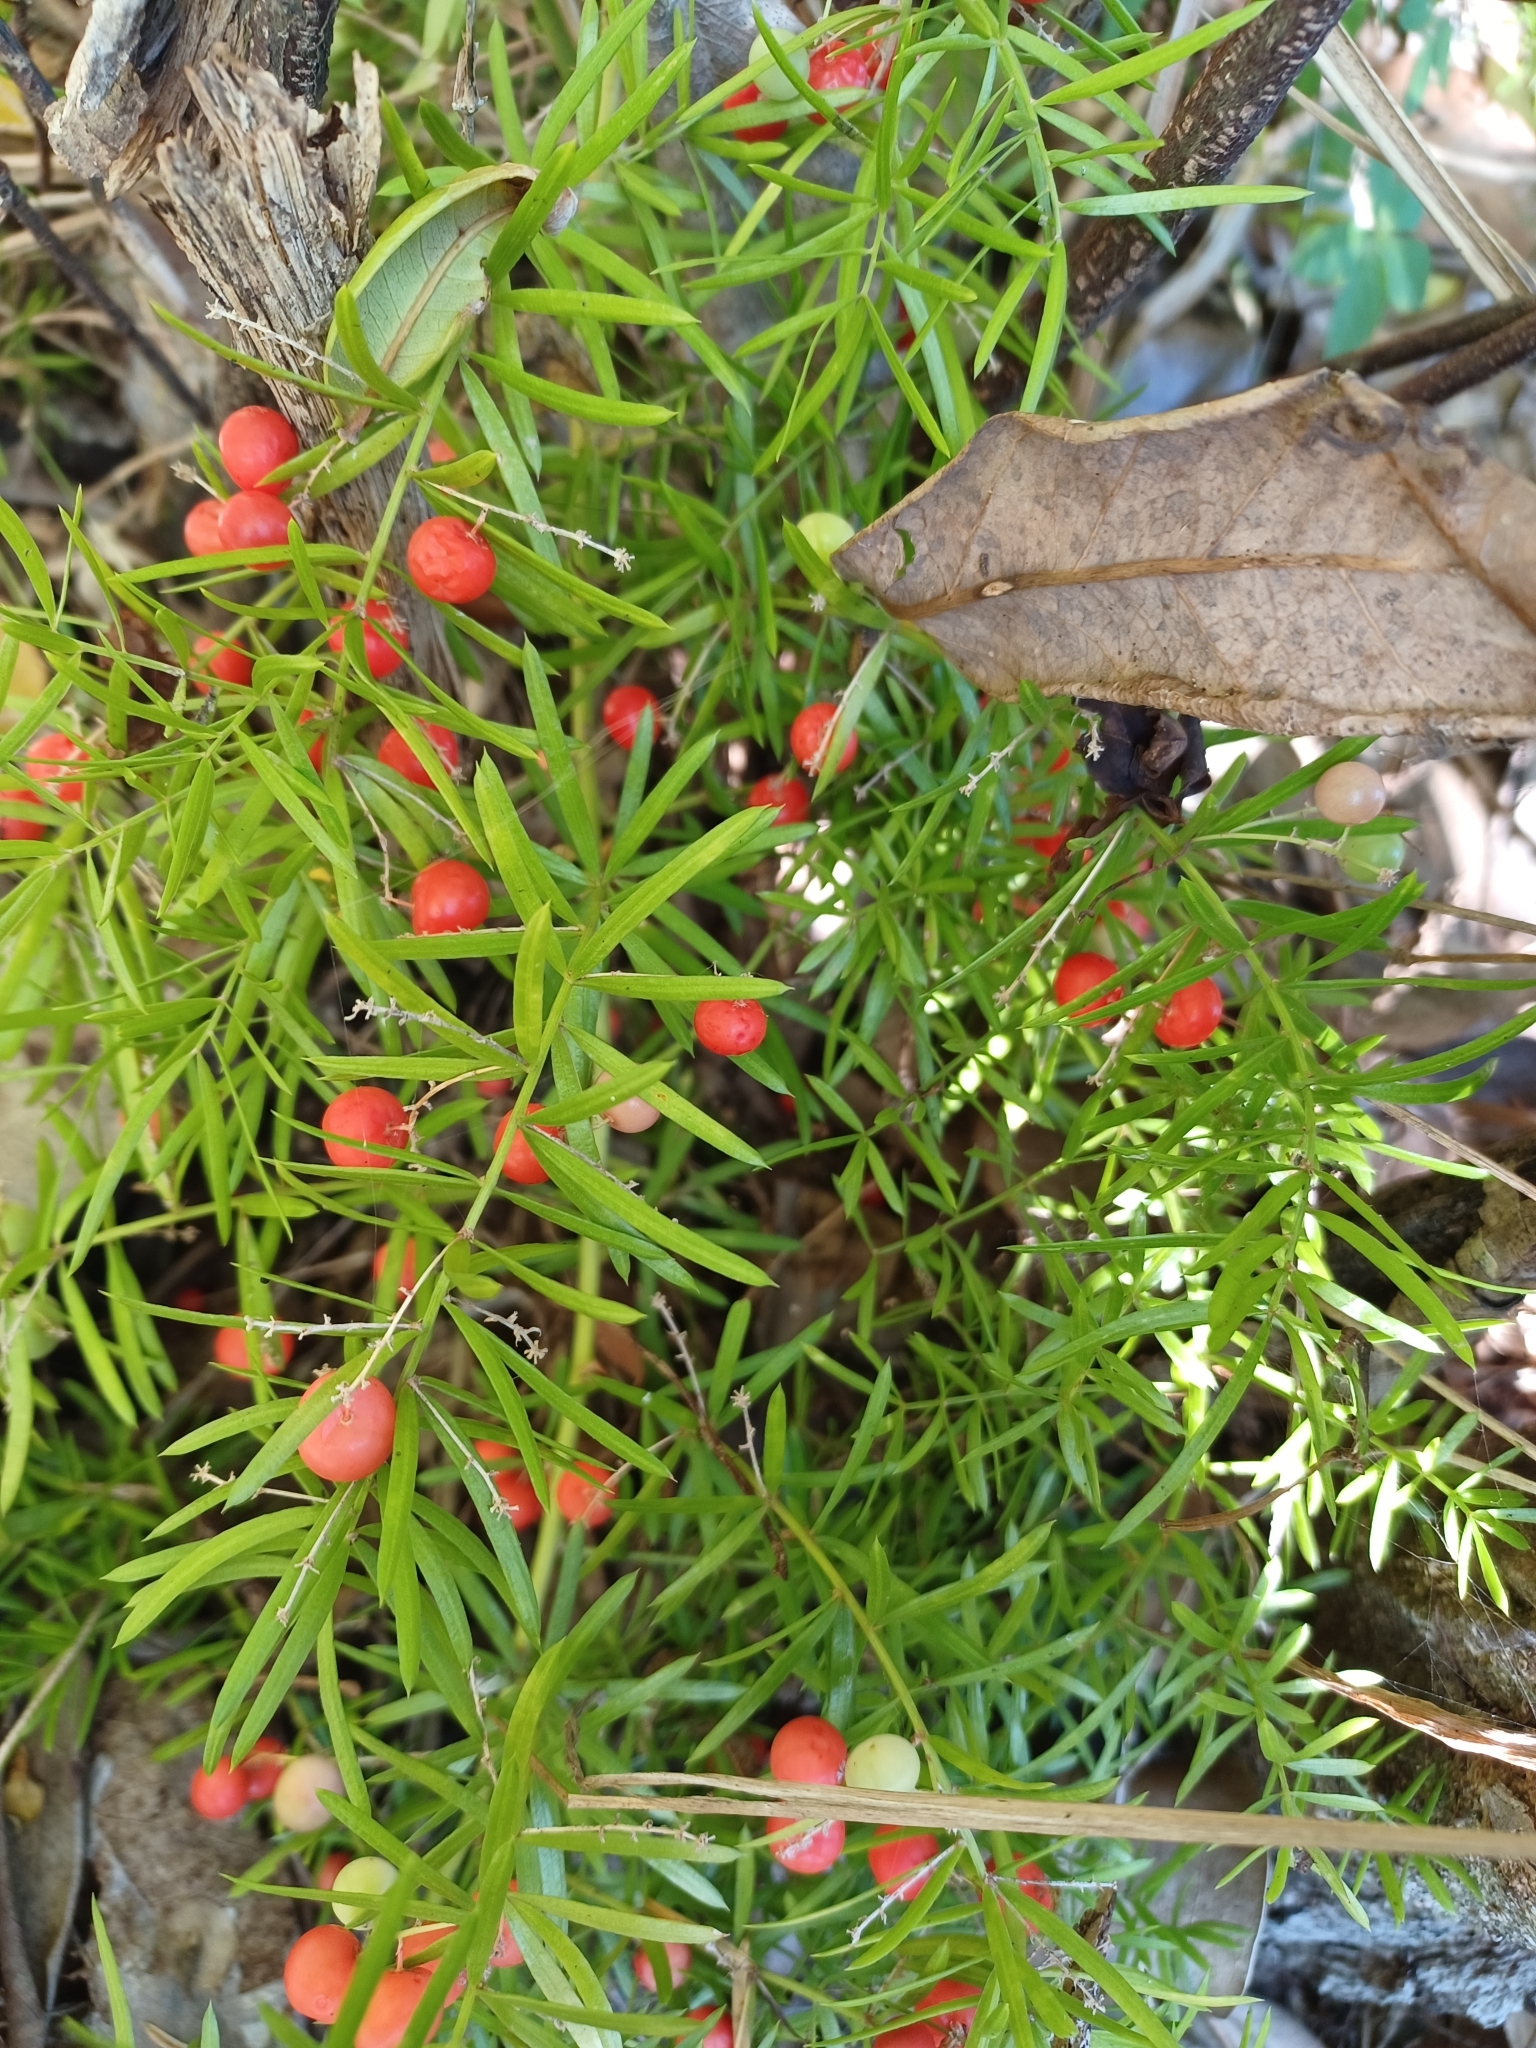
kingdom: Plantae
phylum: Tracheophyta
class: Liliopsida
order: Asparagales
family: Asparagaceae
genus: Asparagus
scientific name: Asparagus aethiopicus
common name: Sprenger's asparagus fern
